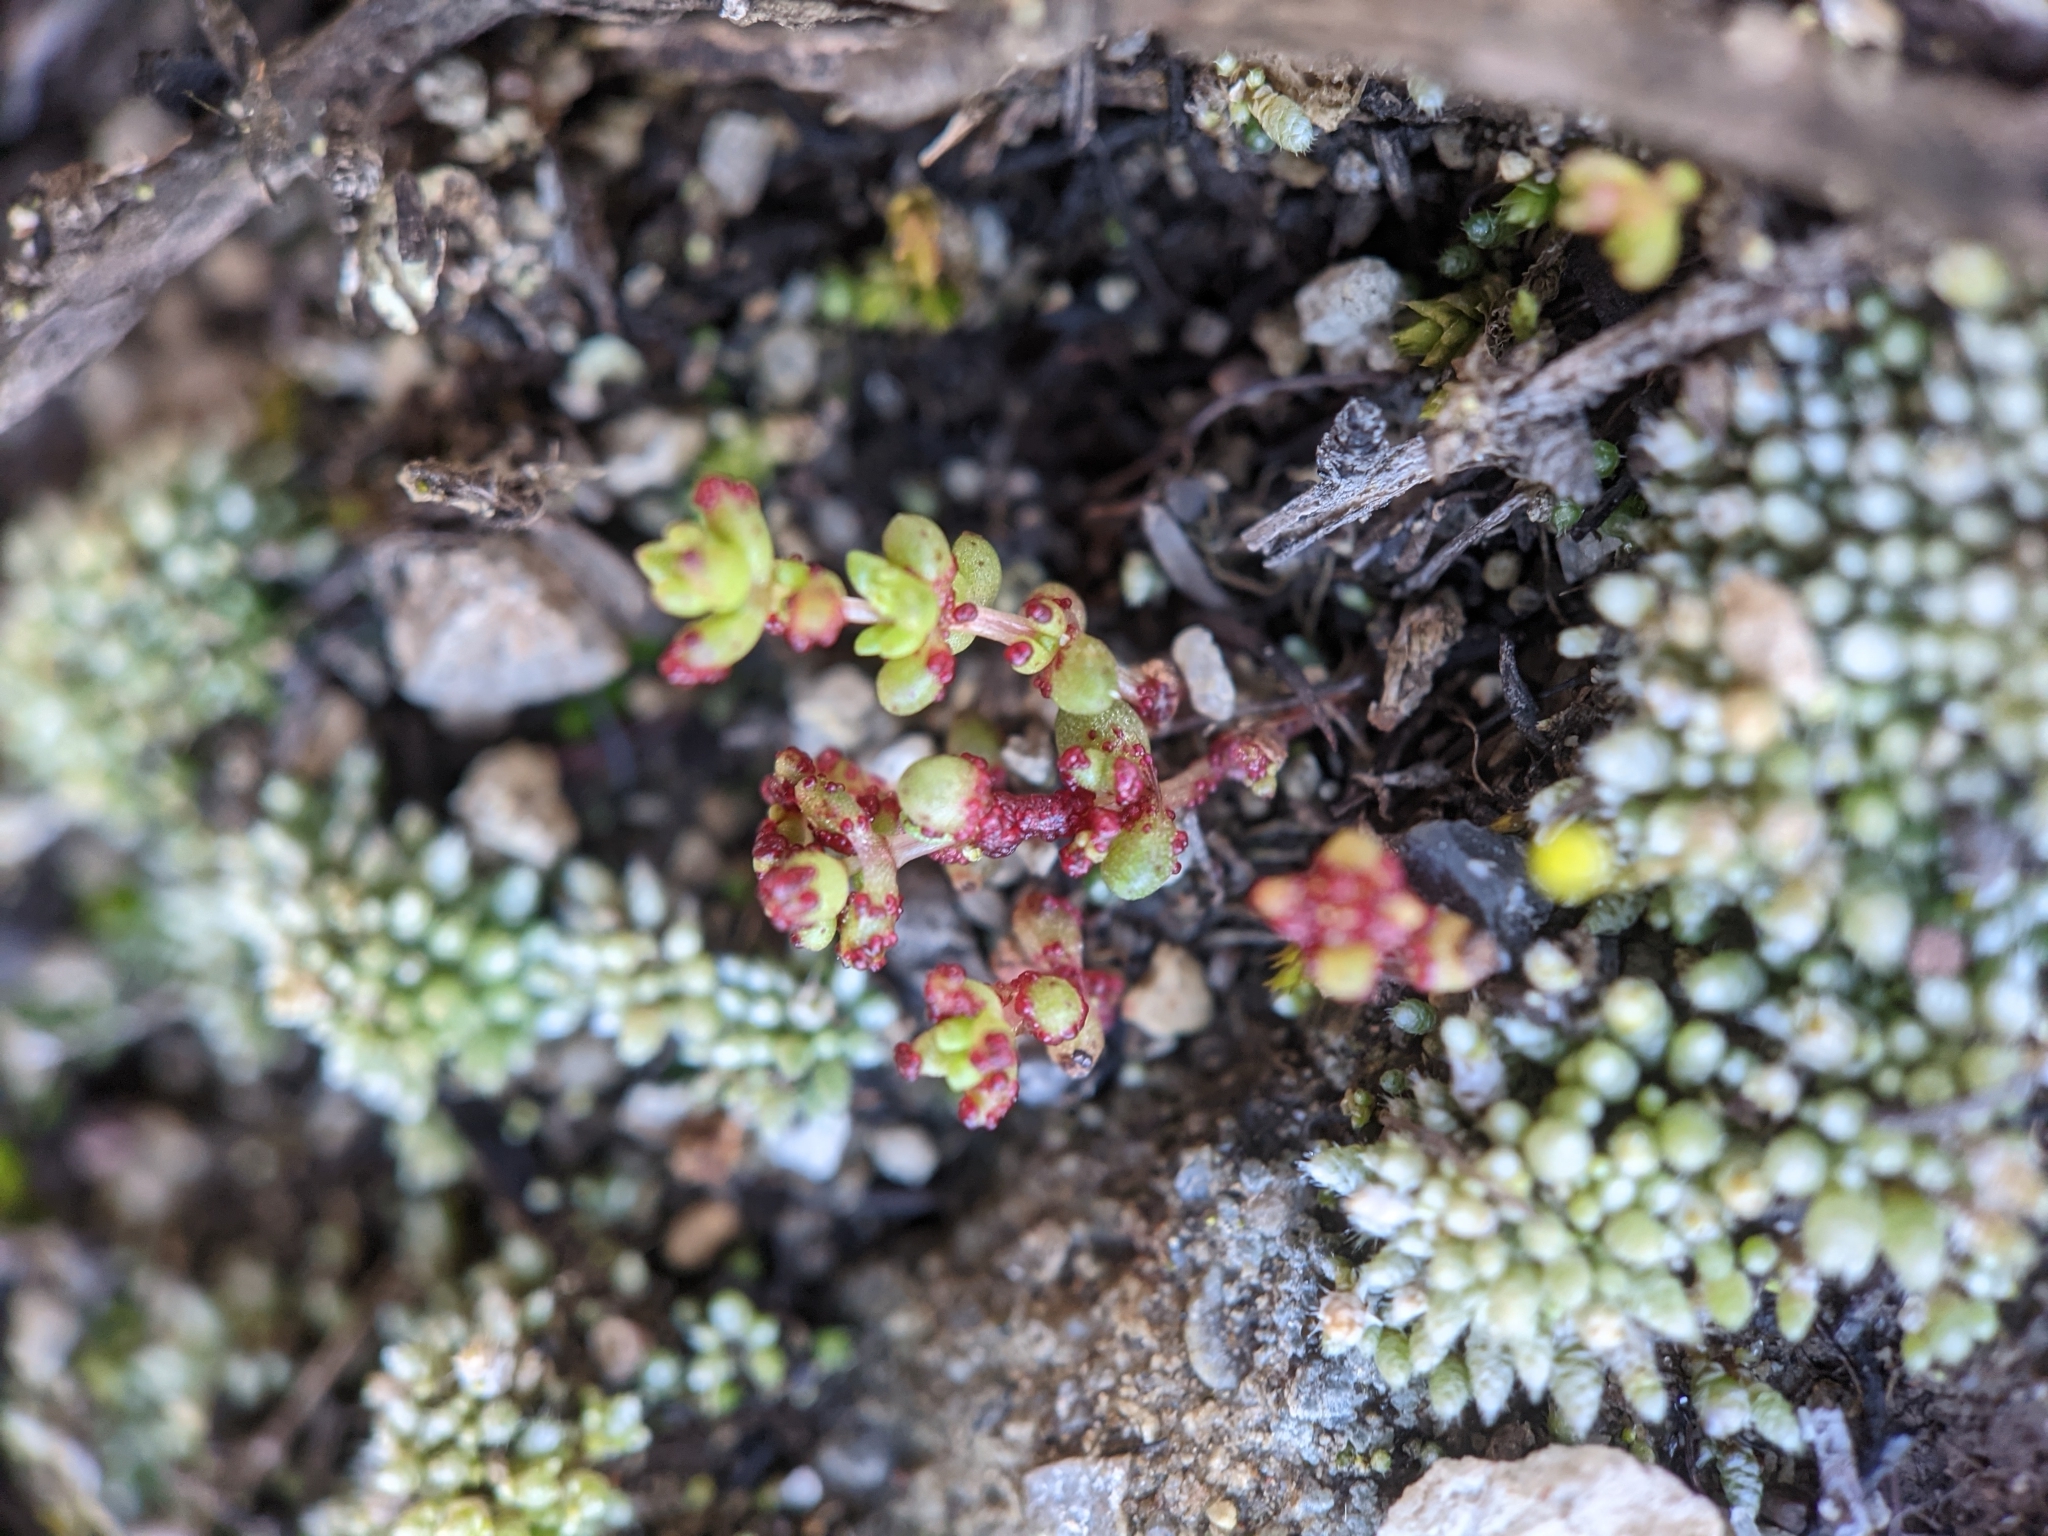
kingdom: Plantae
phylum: Tracheophyta
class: Magnoliopsida
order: Saxifragales
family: Crassulaceae
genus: Crassula
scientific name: Crassula connata
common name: Erect pygmyweed
